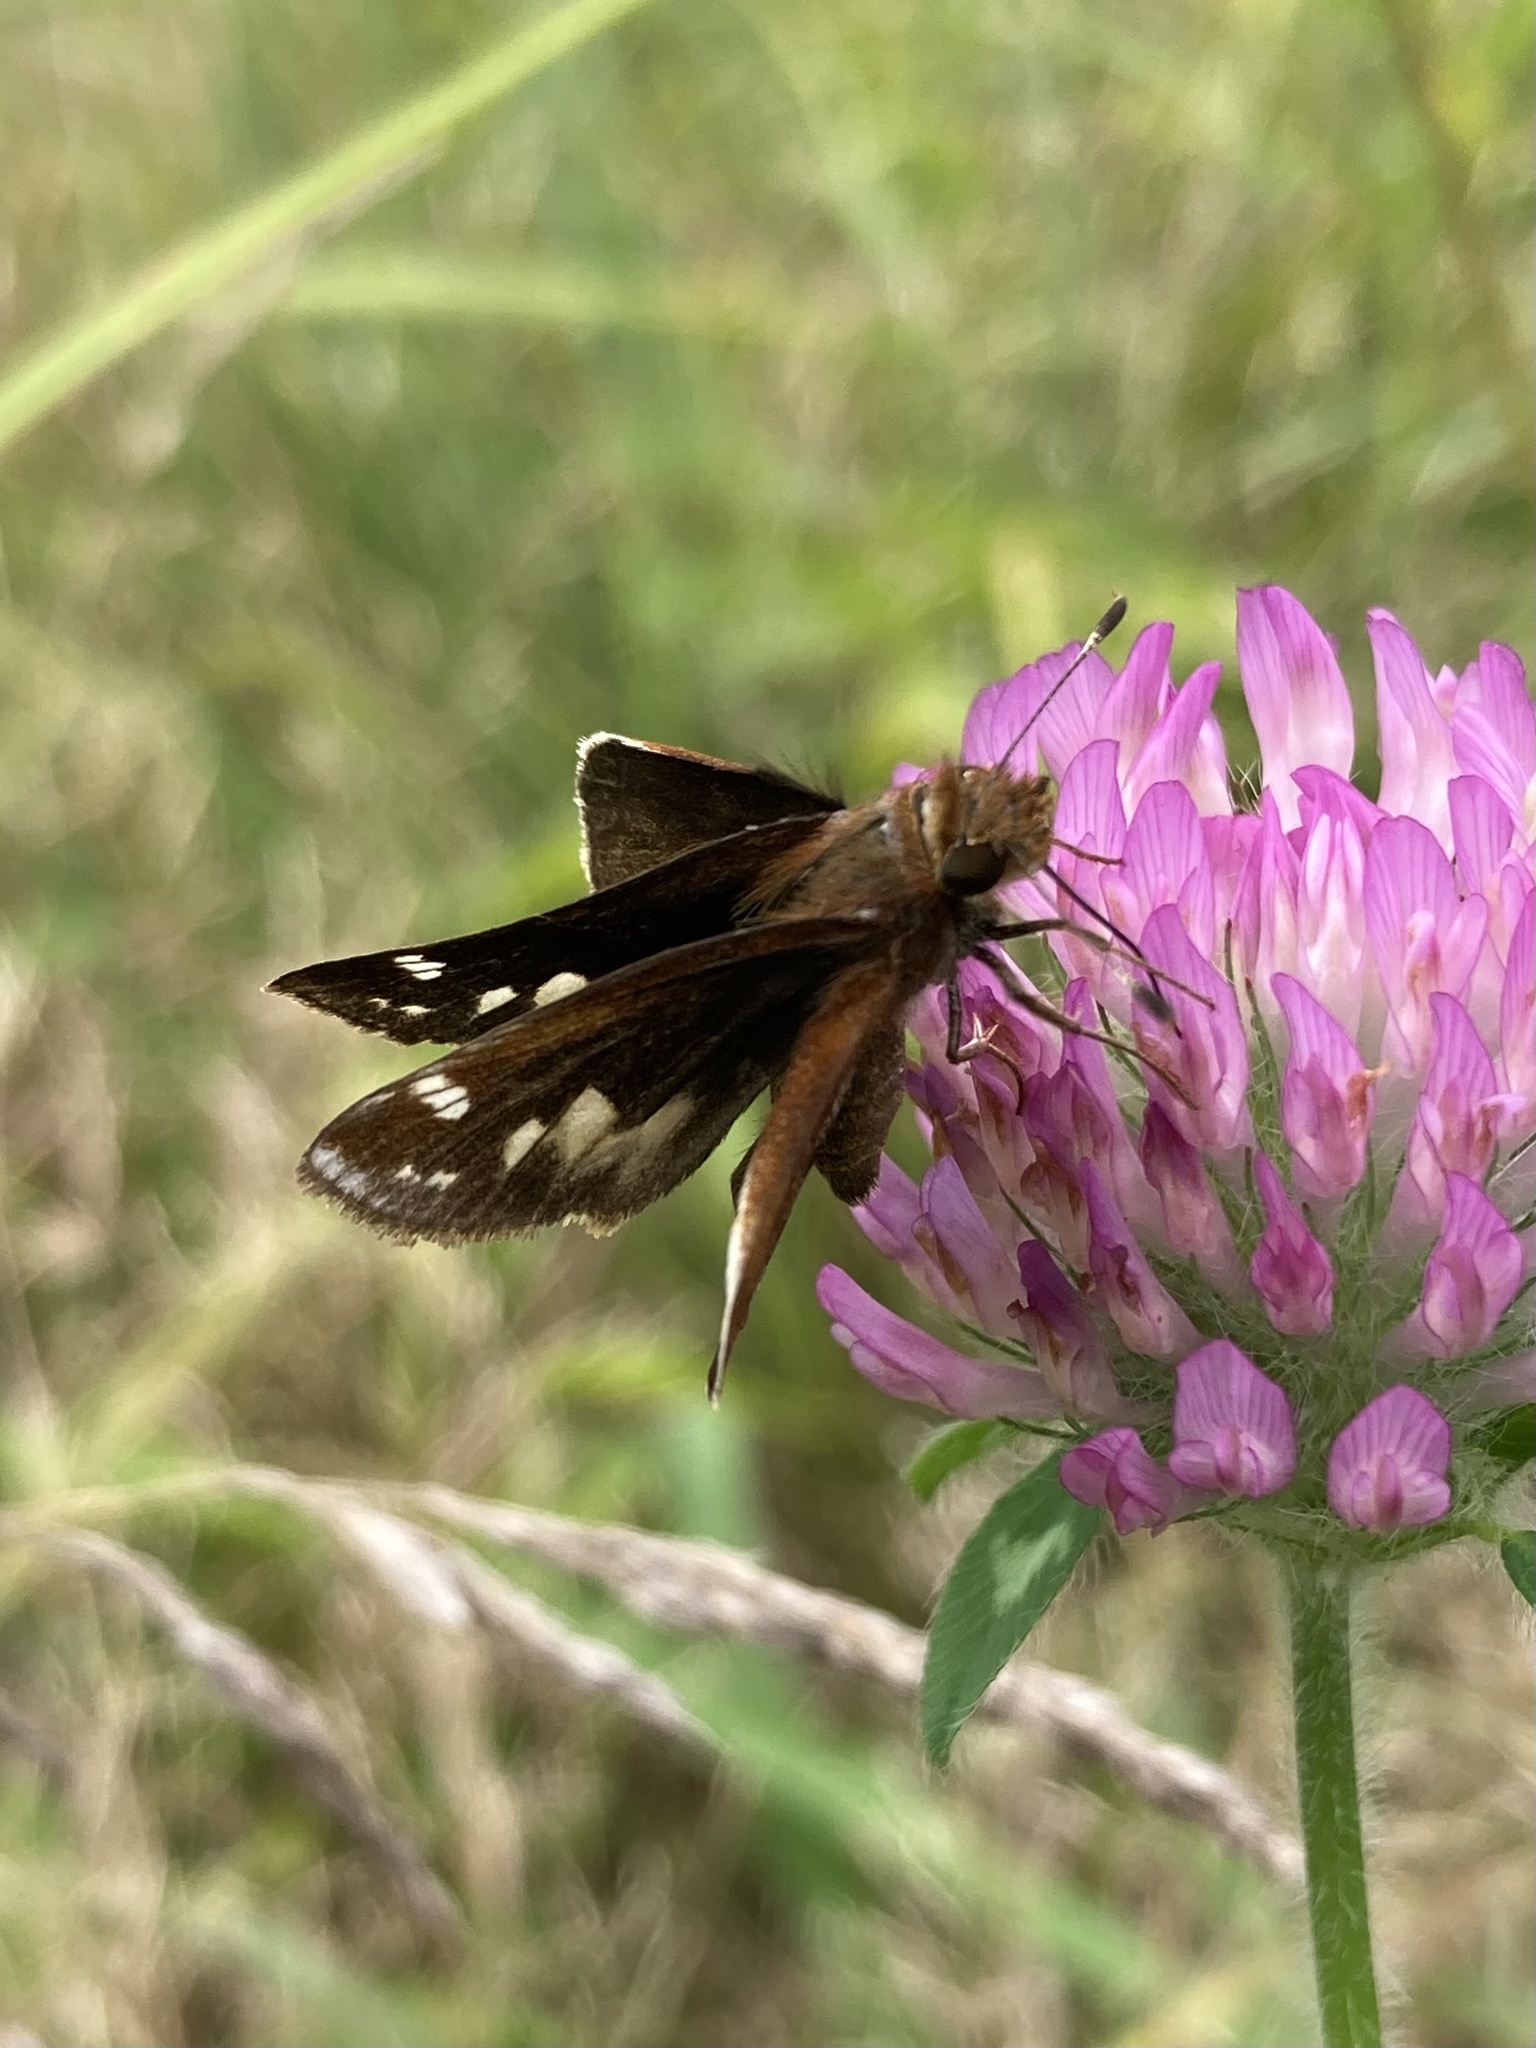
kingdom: Animalia
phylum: Arthropoda
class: Insecta
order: Lepidoptera
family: Hesperiidae
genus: Lon
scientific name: Lon zabulon
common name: Zabulon skipper
